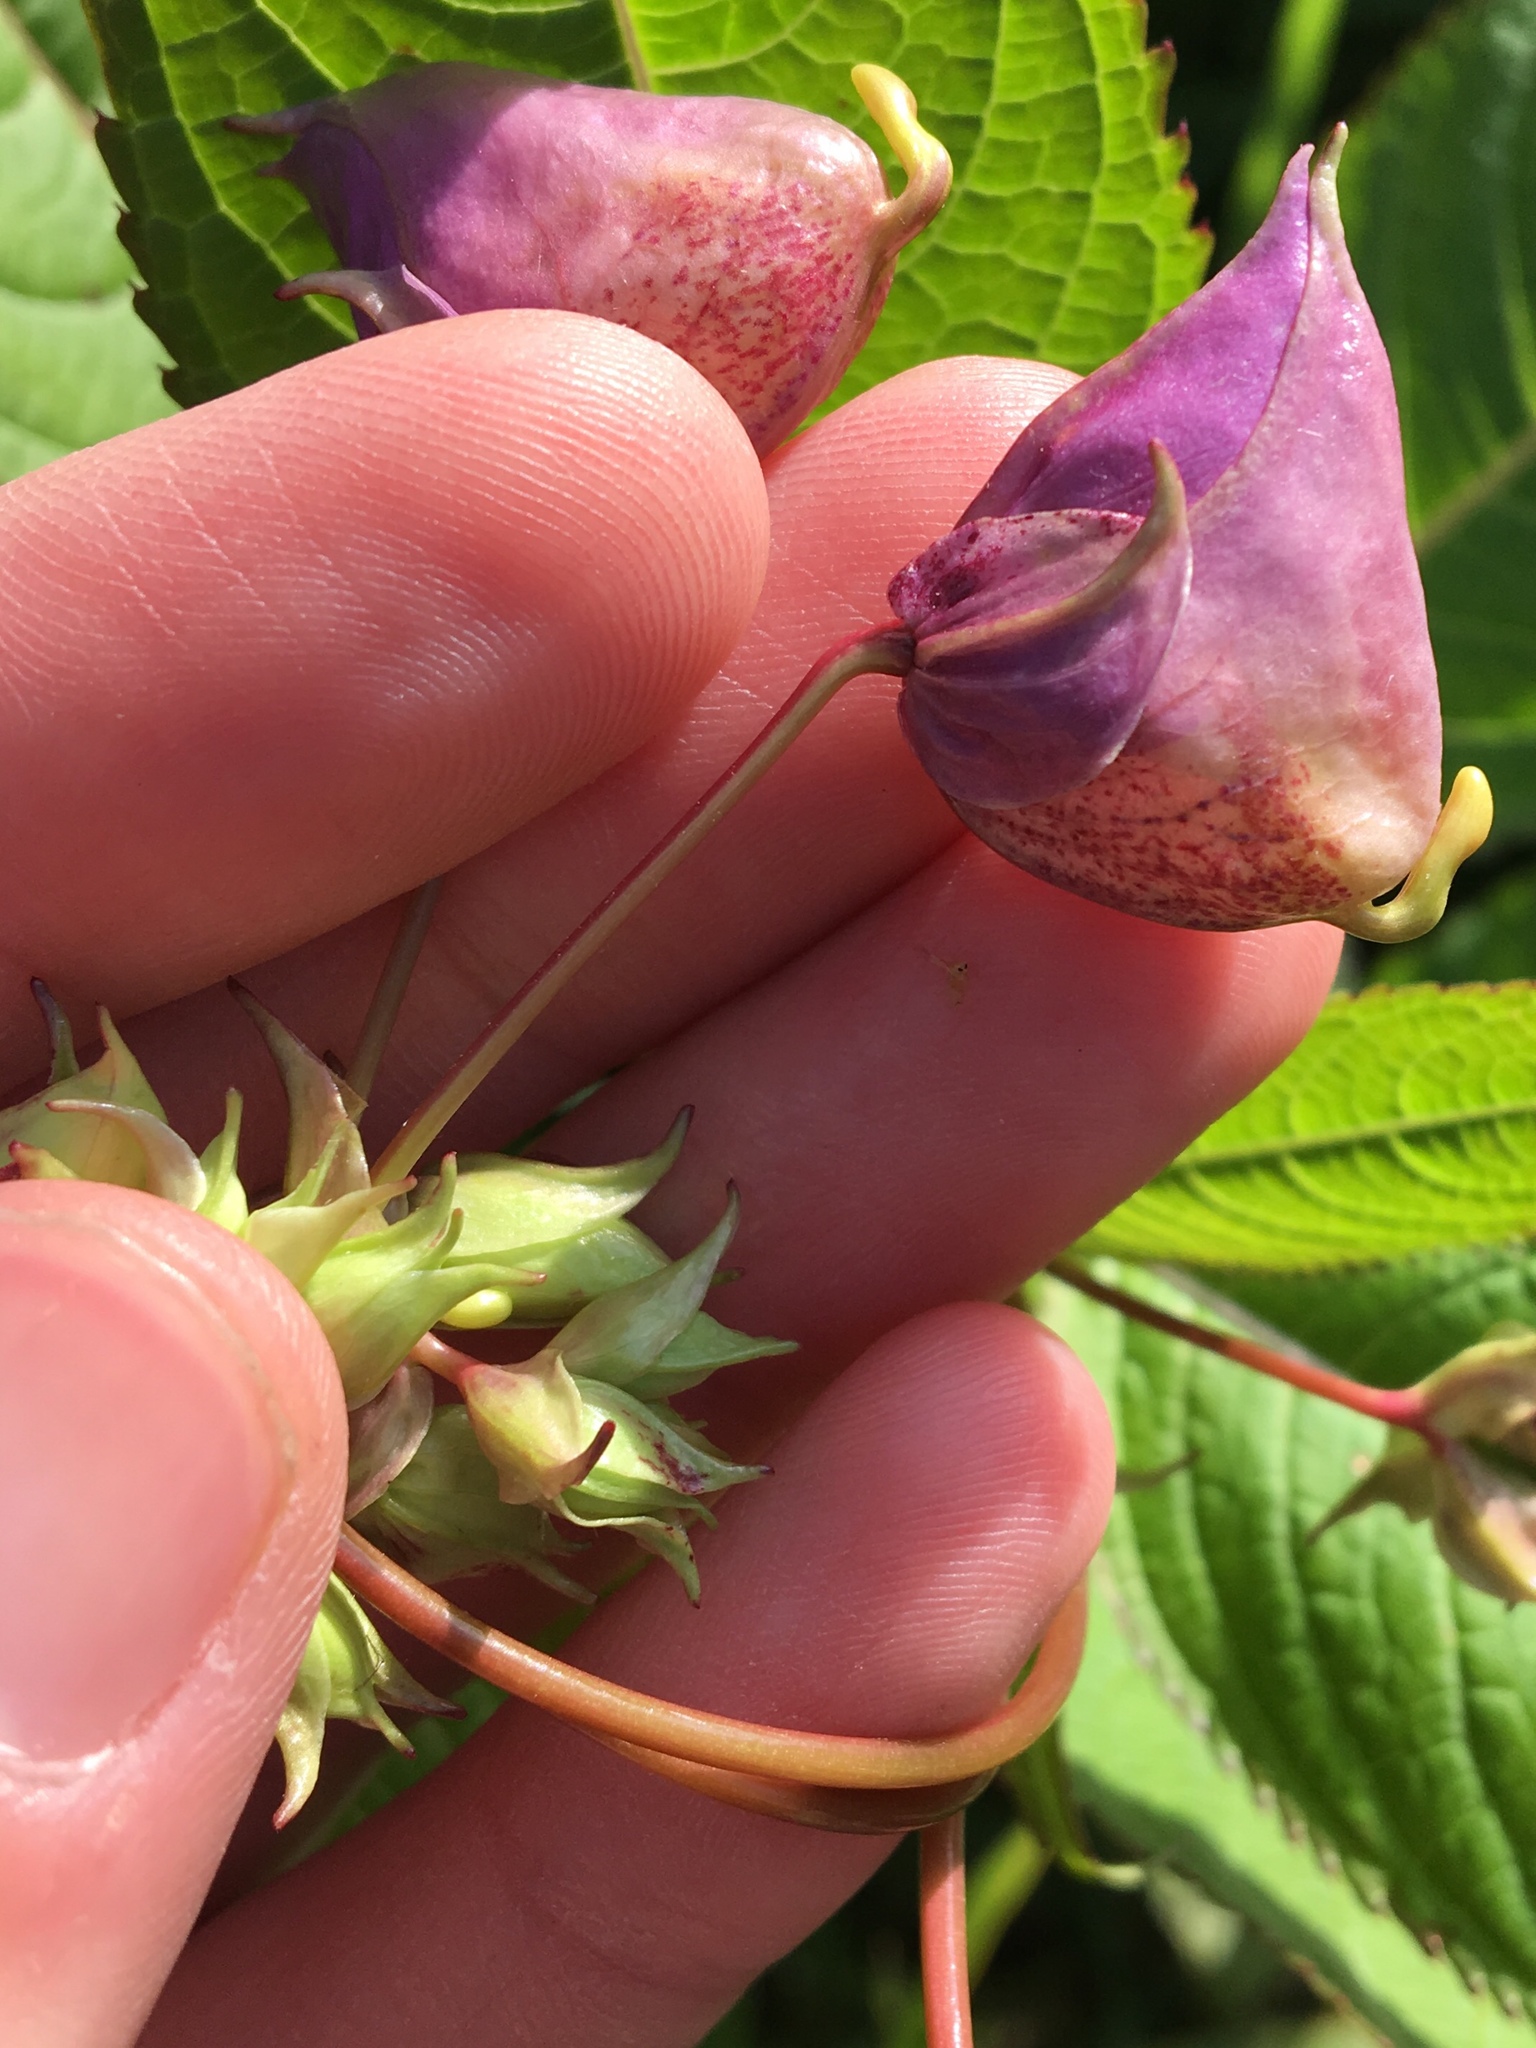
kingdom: Plantae
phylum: Tracheophyta
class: Magnoliopsida
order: Ericales
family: Balsaminaceae
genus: Impatiens
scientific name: Impatiens glandulifera
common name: Himalayan balsam
